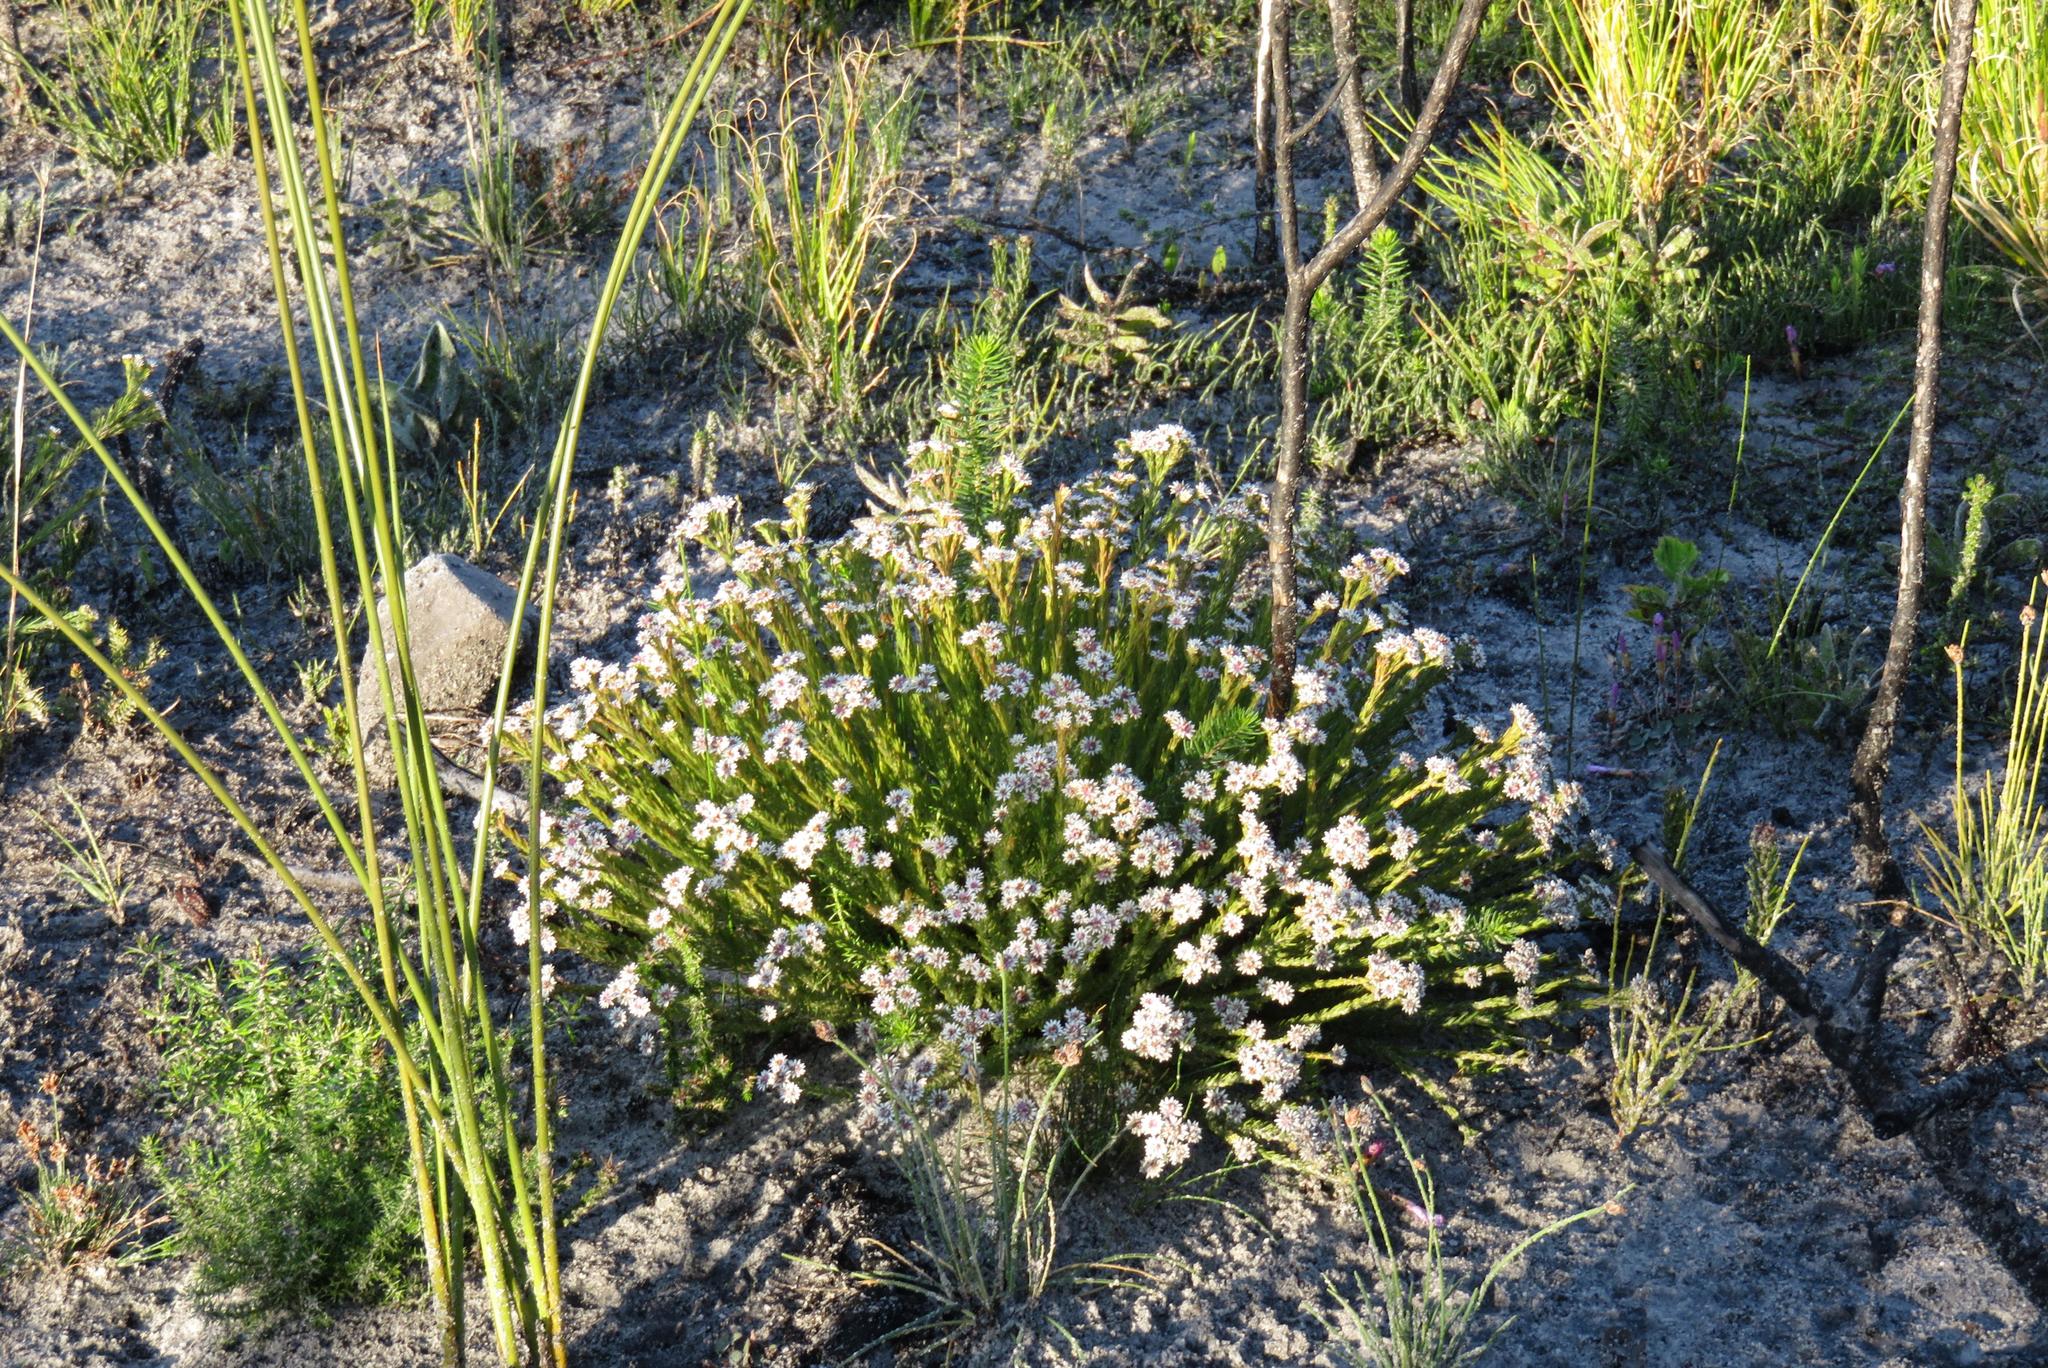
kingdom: Plantae
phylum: Tracheophyta
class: Magnoliopsida
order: Bruniales
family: Bruniaceae
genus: Staavia
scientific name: Staavia radiata
